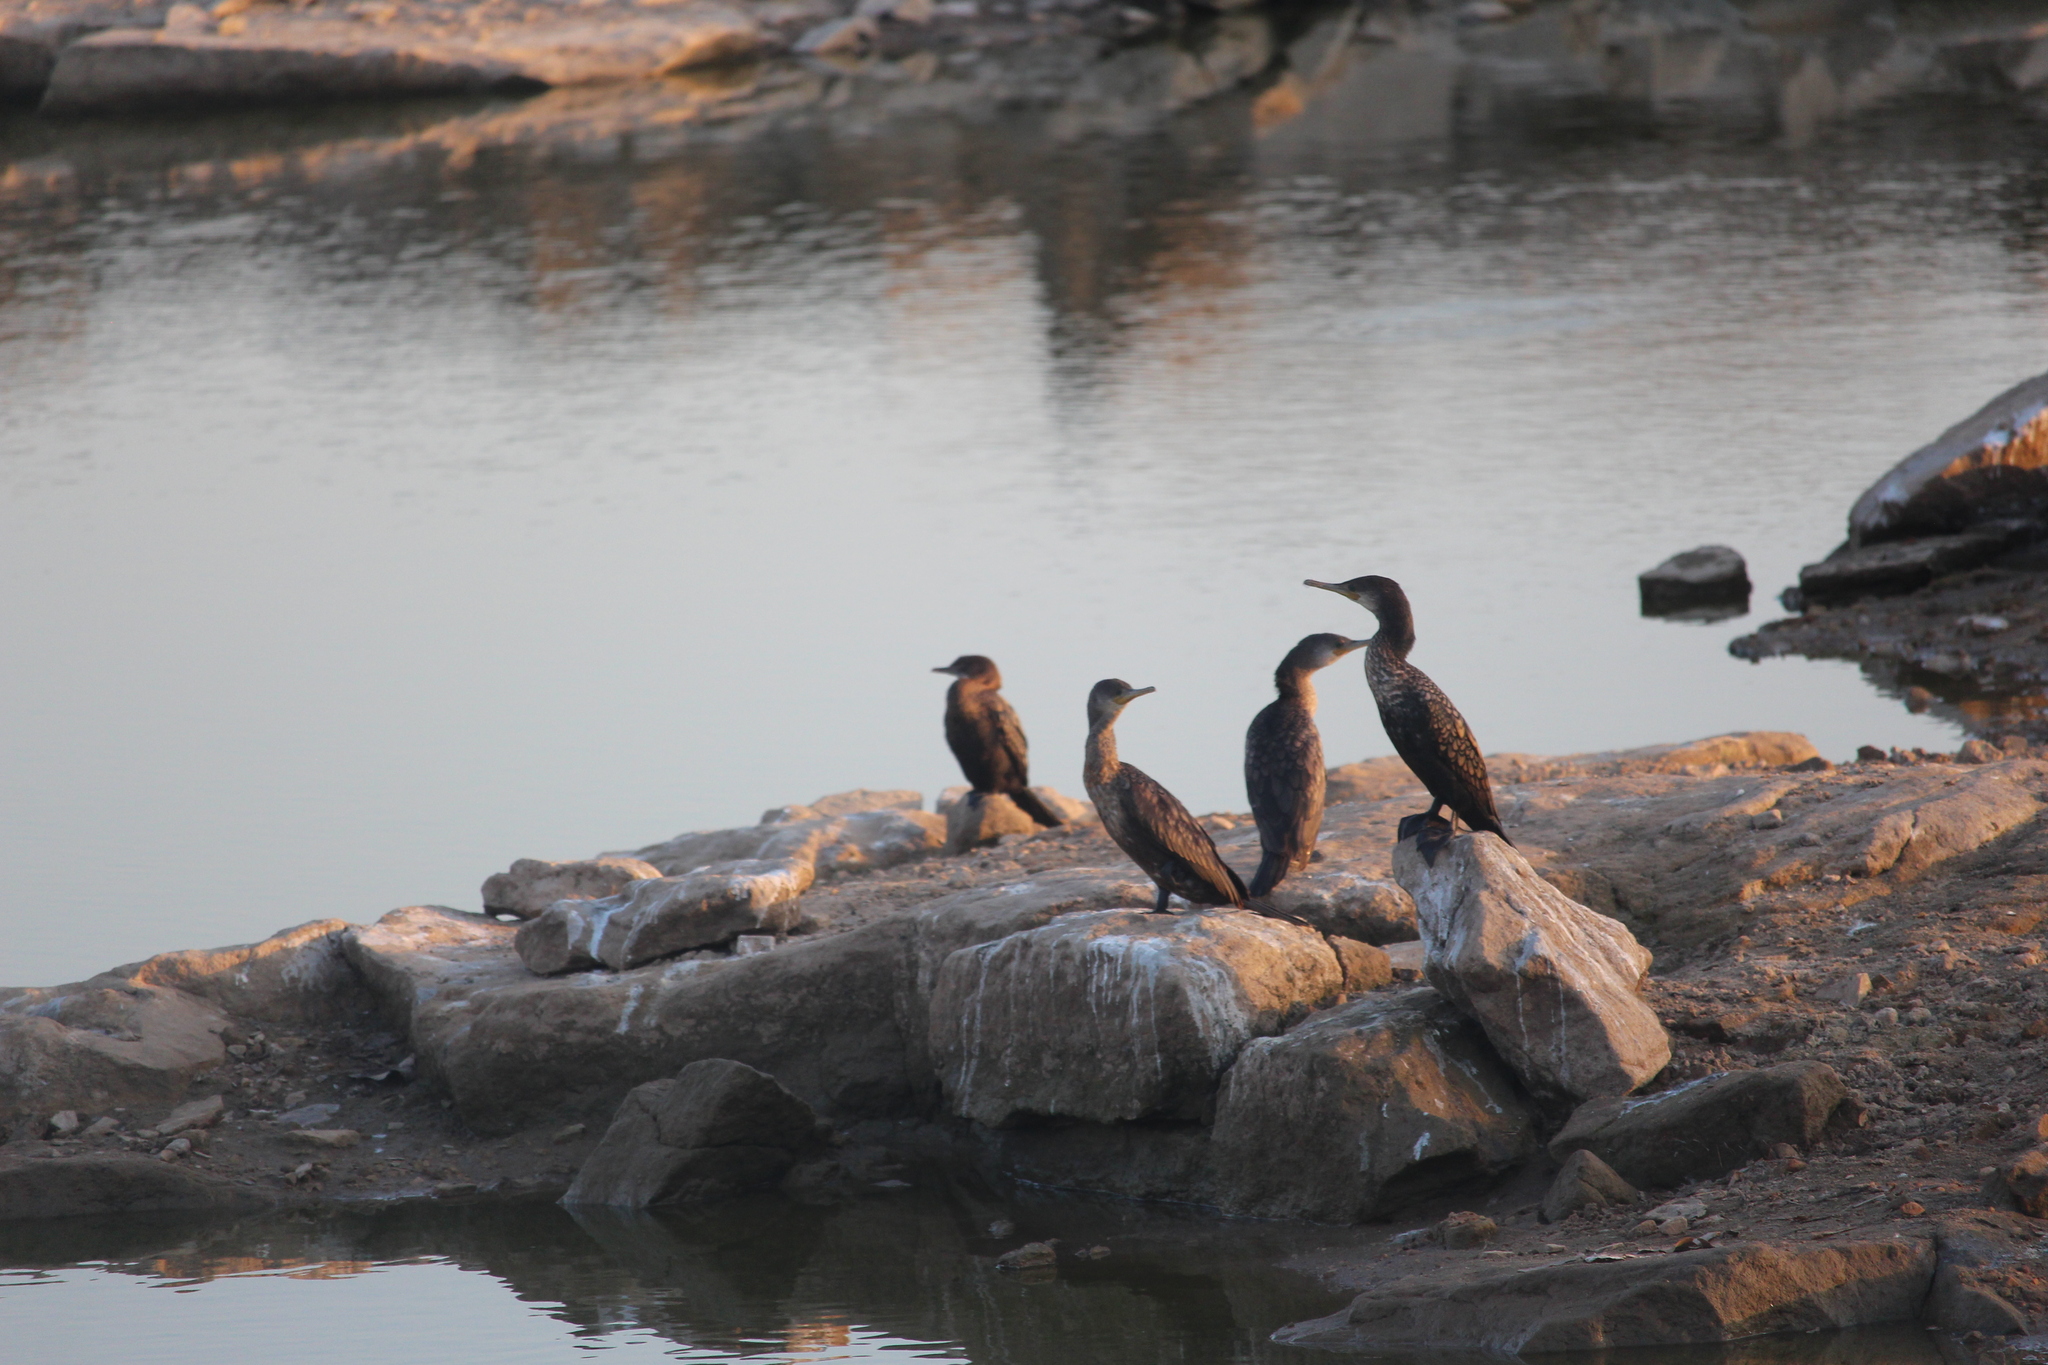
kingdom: Animalia
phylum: Chordata
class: Aves
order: Suliformes
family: Phalacrocoracidae
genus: Microcarbo
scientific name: Microcarbo niger
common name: Little cormorant
